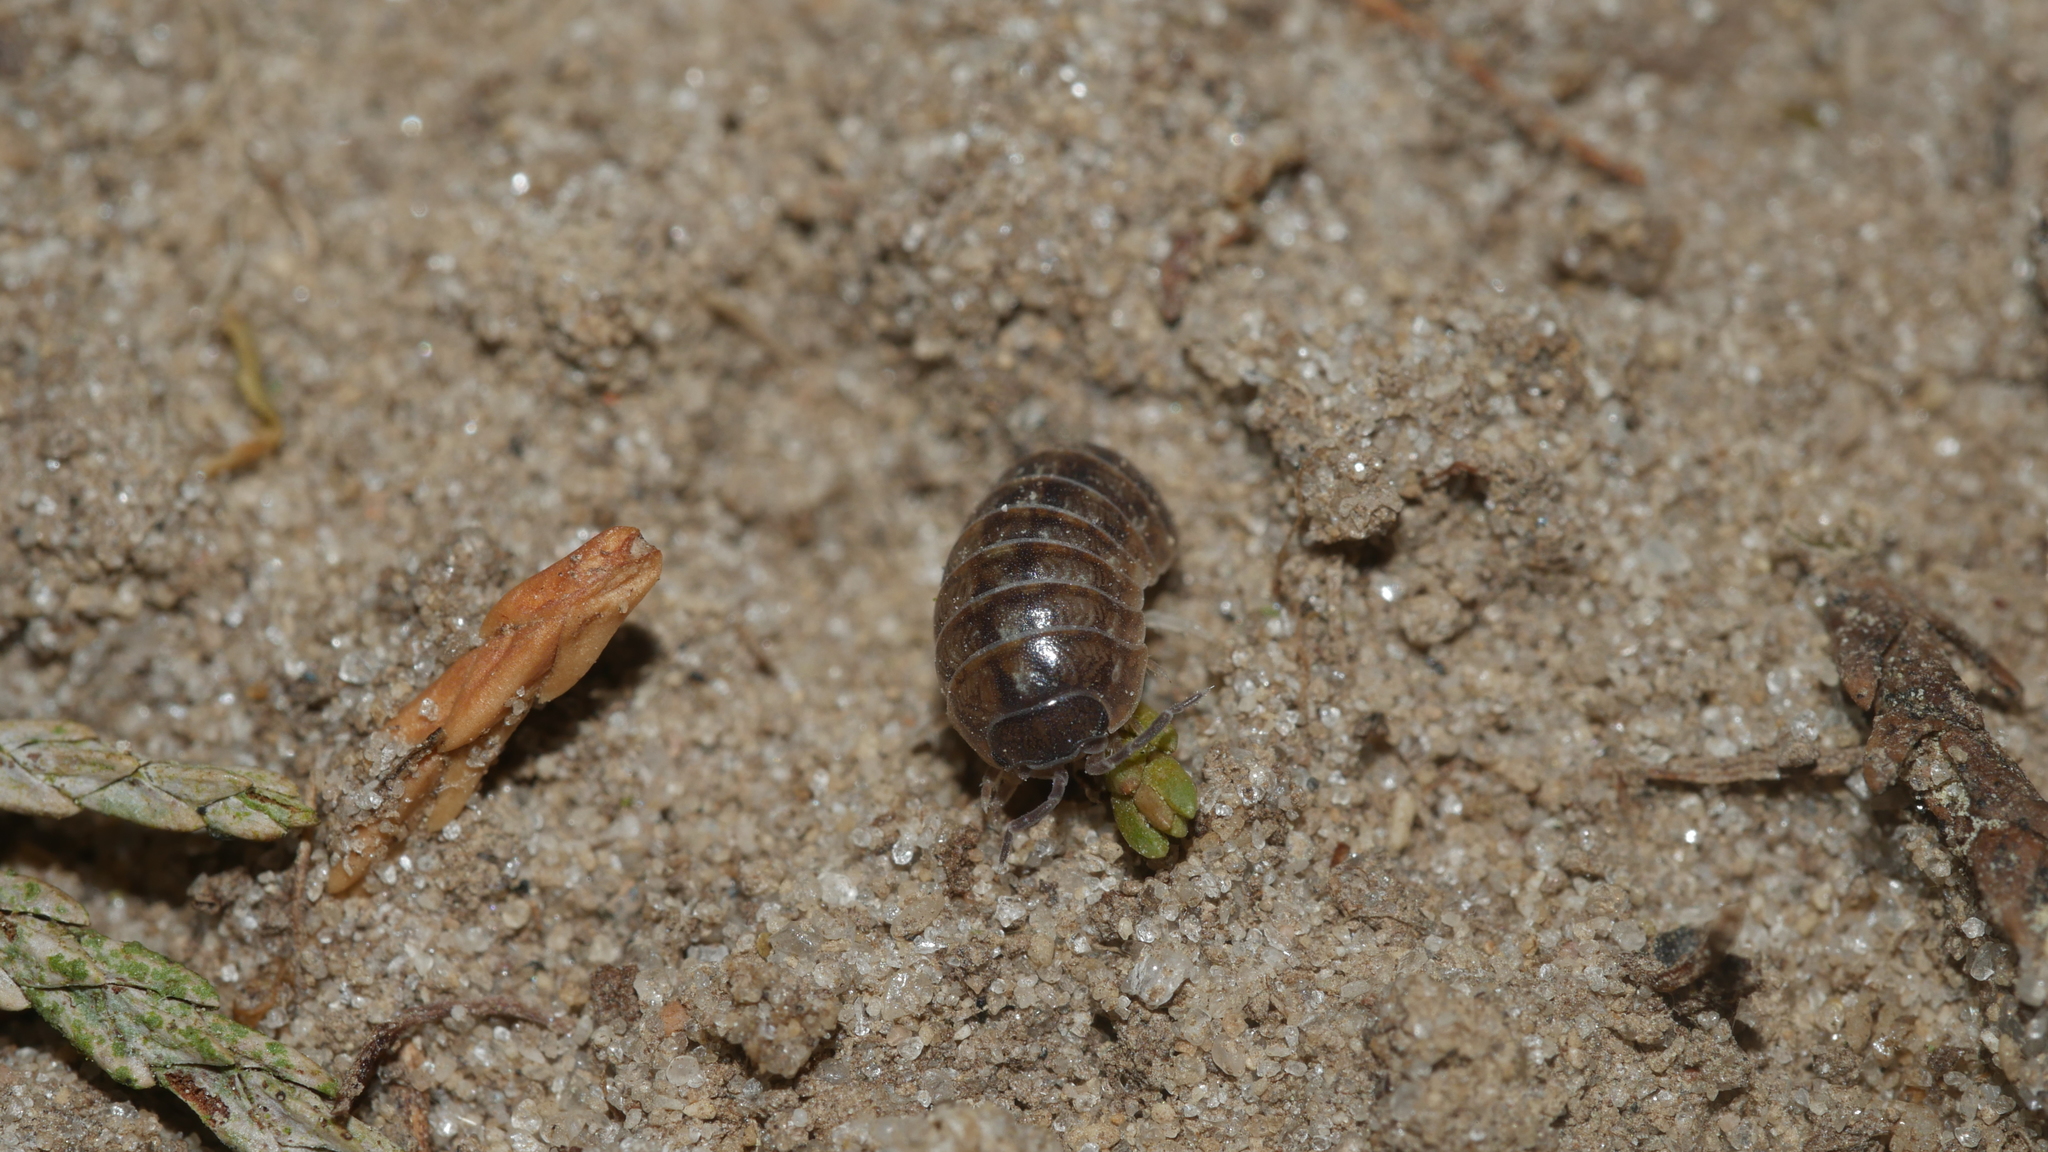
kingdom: Animalia
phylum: Arthropoda
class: Malacostraca
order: Isopoda
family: Armadillidiidae
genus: Armadillidium
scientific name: Armadillidium vulgare
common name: Common pill woodlouse
